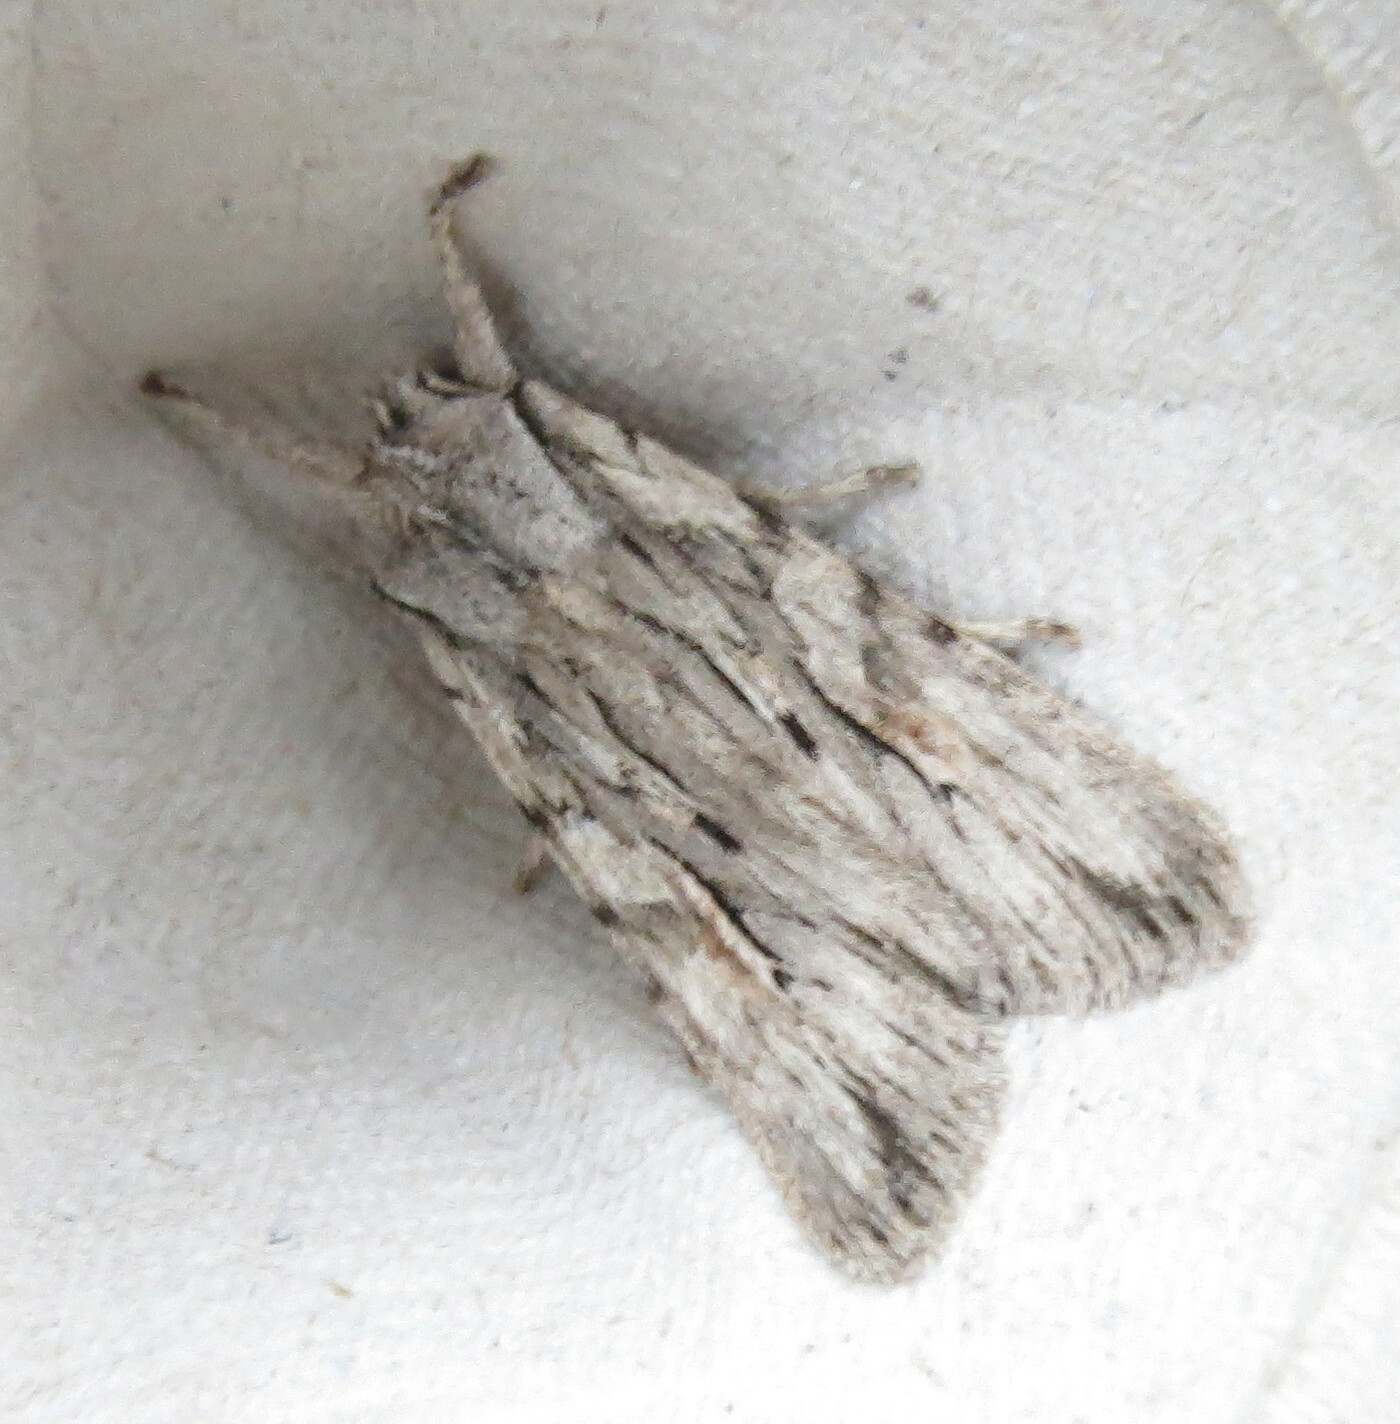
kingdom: Animalia
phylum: Arthropoda
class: Insecta
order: Lepidoptera
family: Noctuidae
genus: Lithophane
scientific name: Lithophane leautieri
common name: Blair's shoulder-knot
